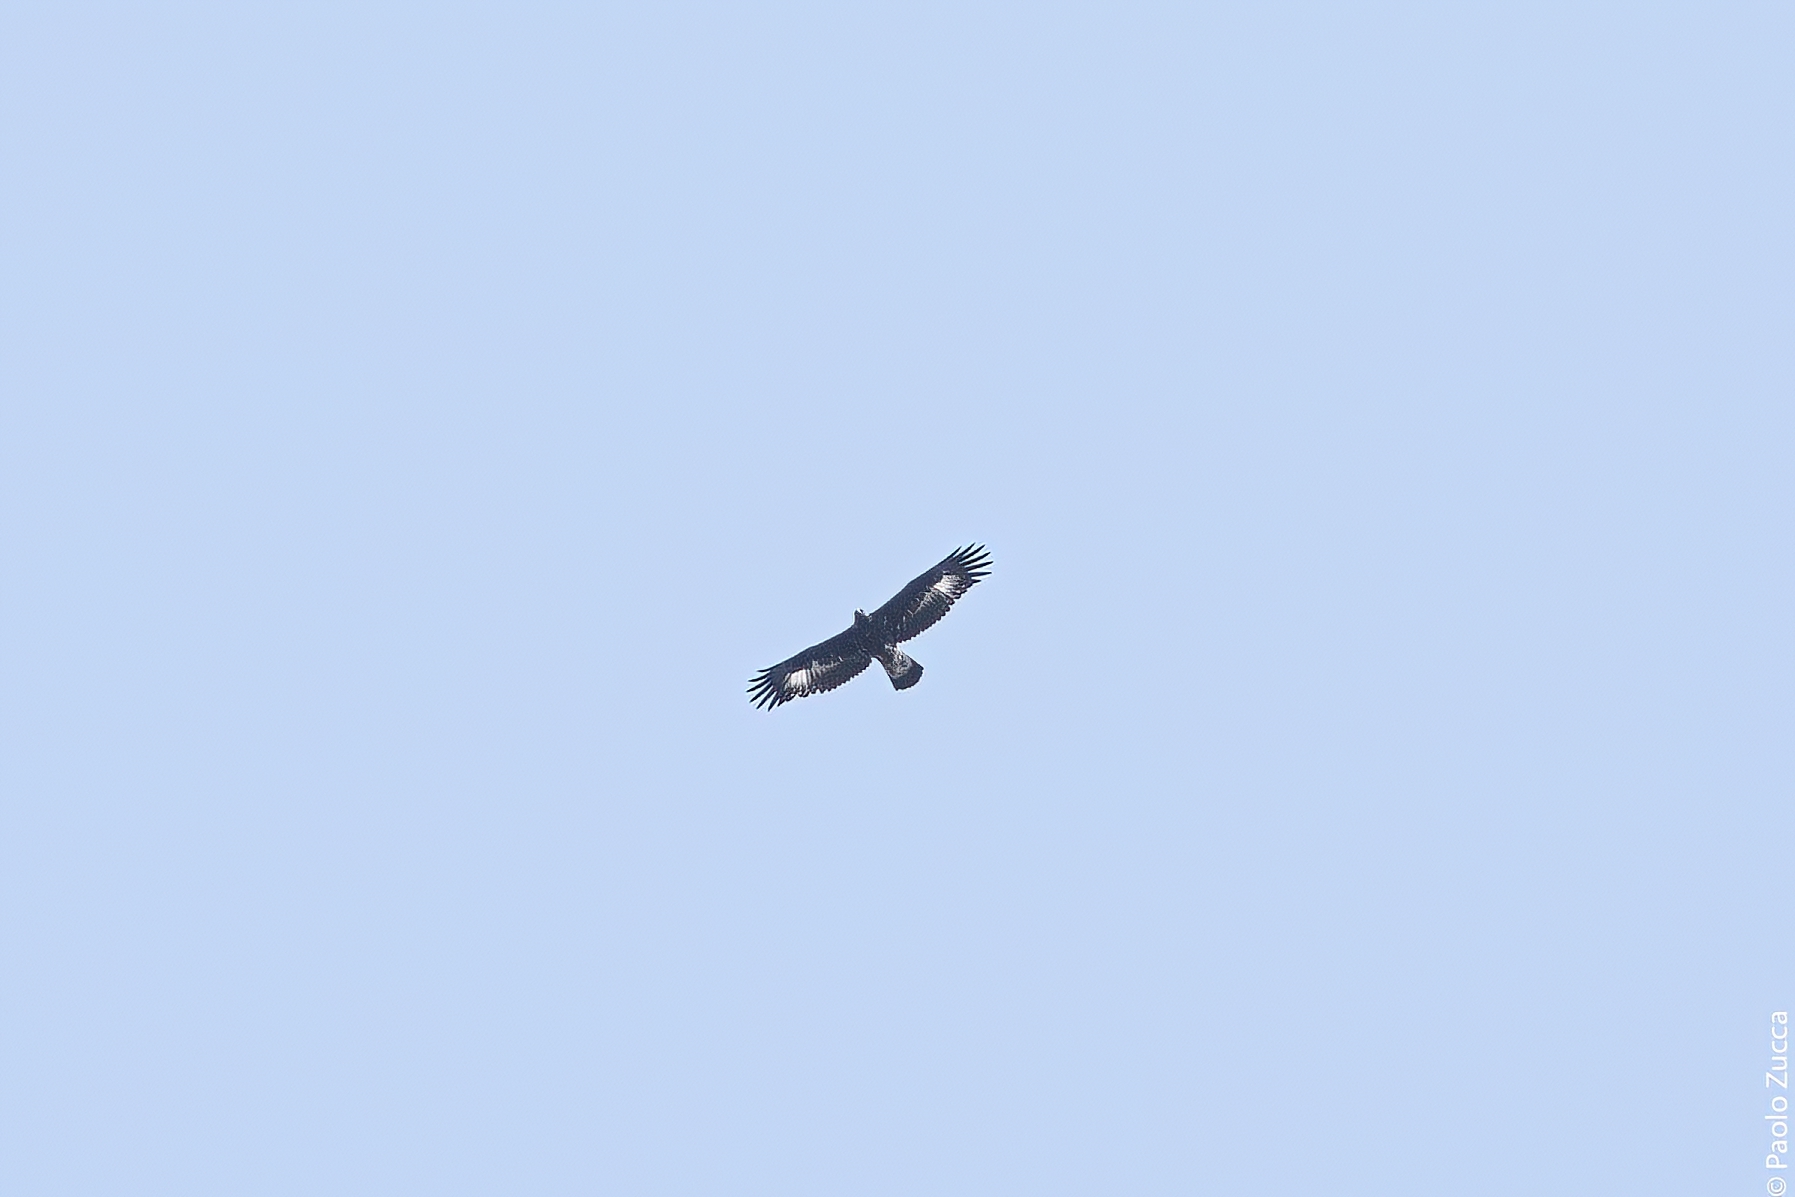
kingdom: Animalia
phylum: Chordata
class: Aves
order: Accipitriformes
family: Accipitridae
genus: Aquila
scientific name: Aquila chrysaetos
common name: Golden eagle
